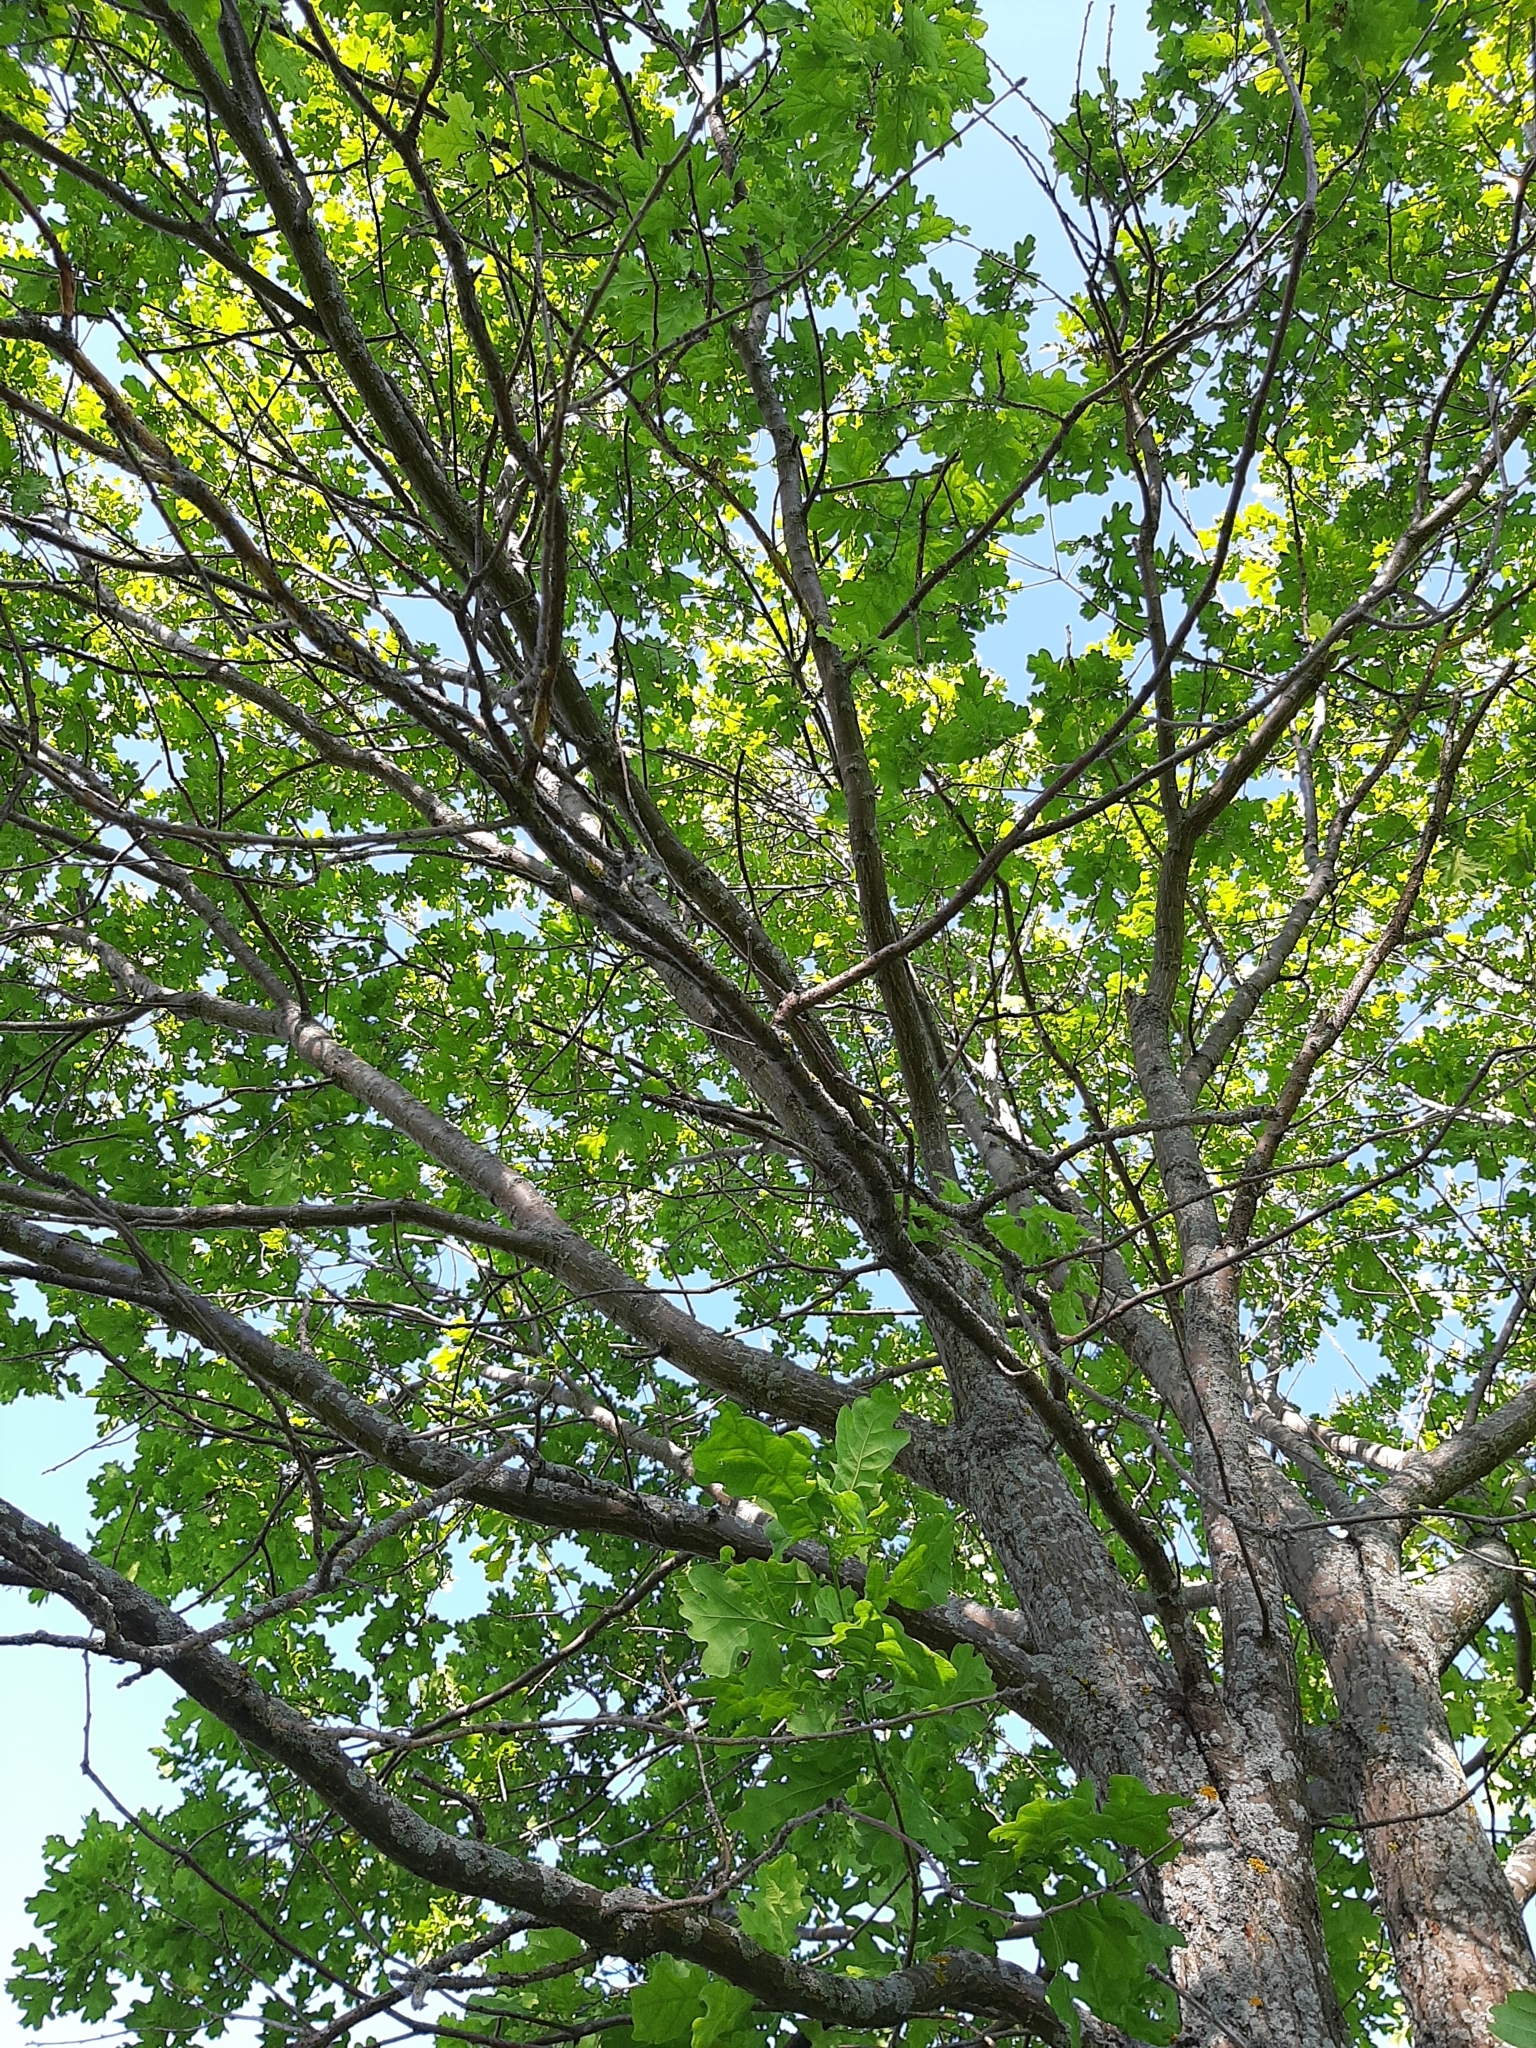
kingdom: Plantae
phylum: Tracheophyta
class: Magnoliopsida
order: Fagales
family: Fagaceae
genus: Quercus
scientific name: Quercus robur
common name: Pedunculate oak
